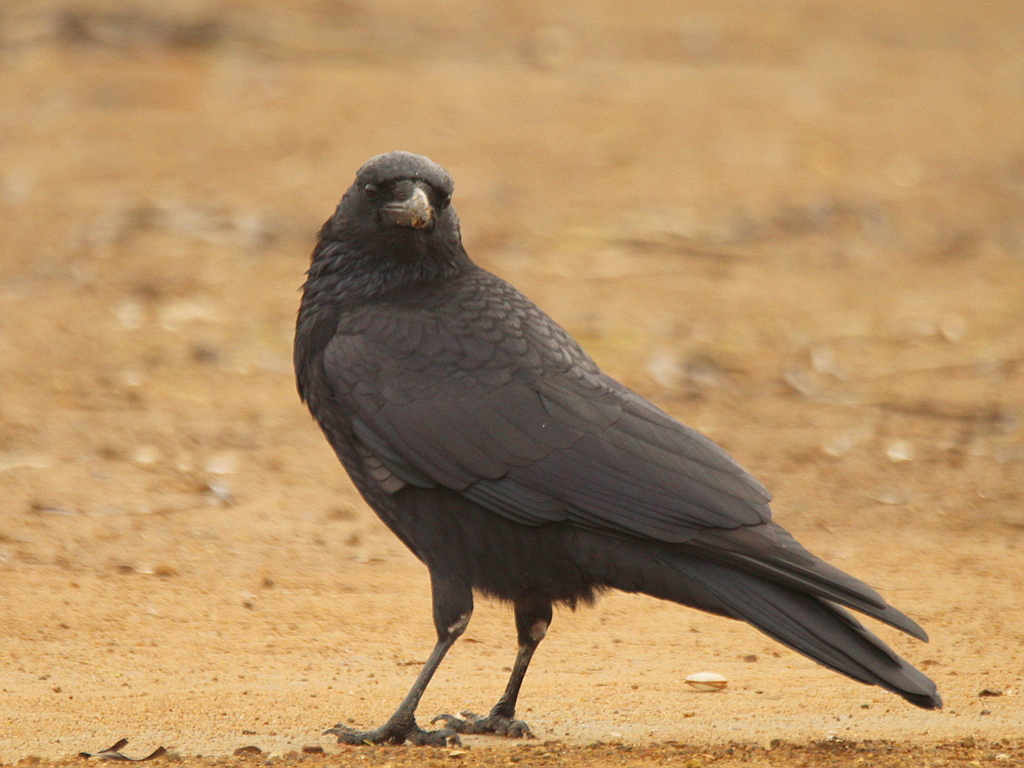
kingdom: Animalia
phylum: Chordata
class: Aves
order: Passeriformes
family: Corvidae
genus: Corvus
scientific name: Corvus corone
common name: Carrion crow
